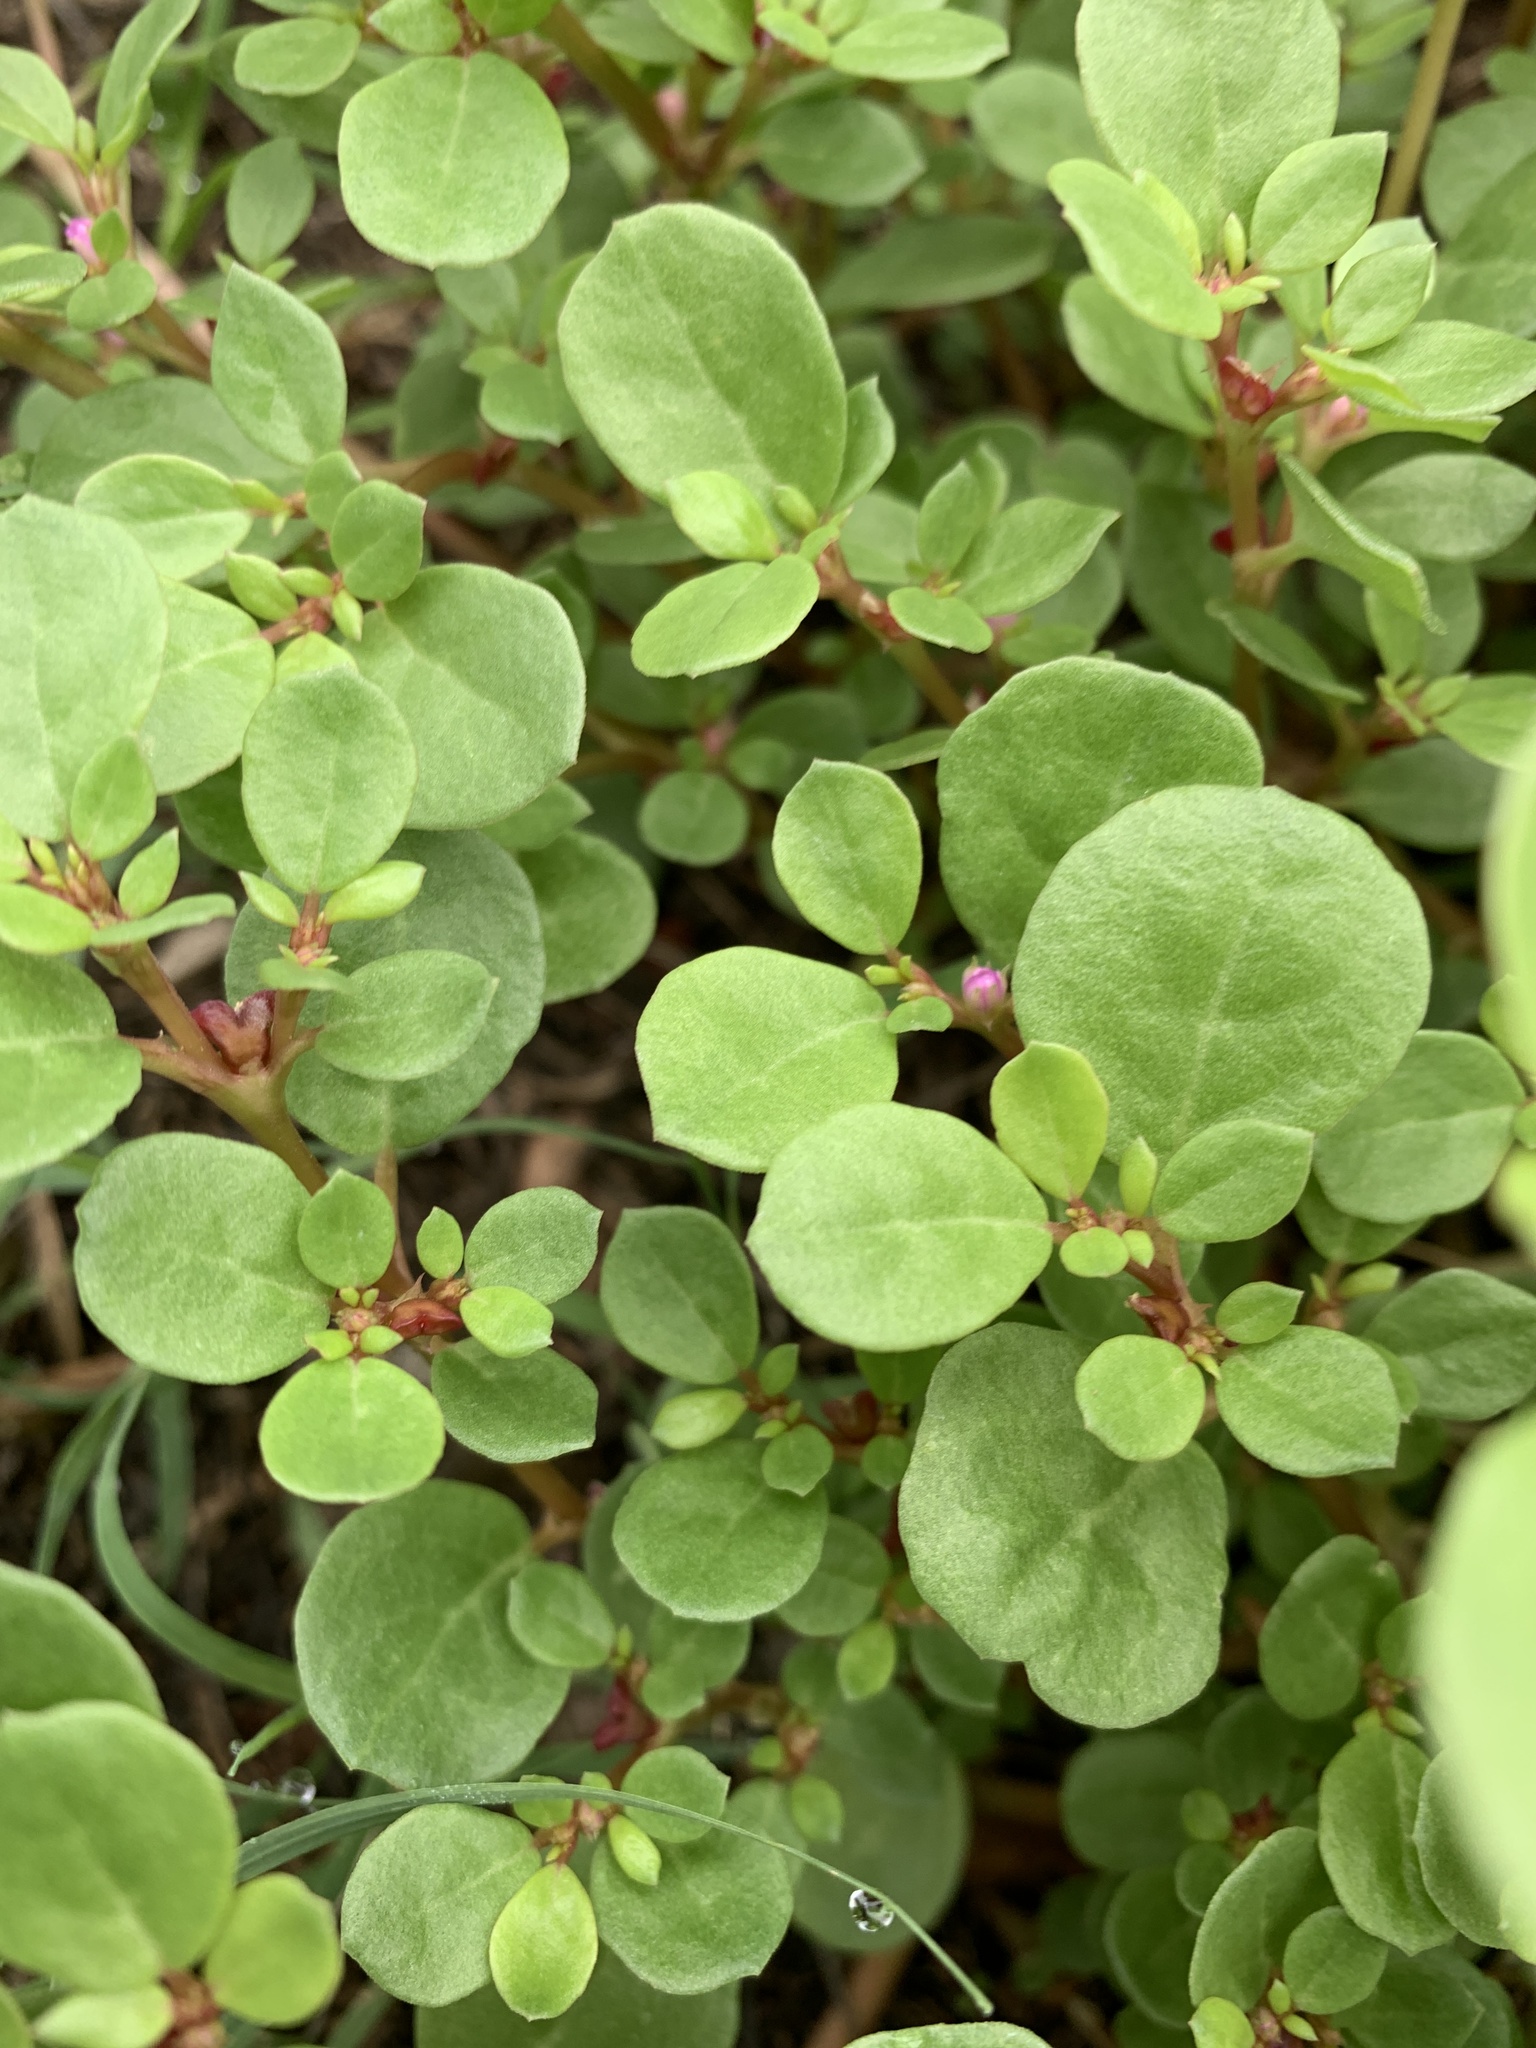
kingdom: Plantae
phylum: Tracheophyta
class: Magnoliopsida
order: Caryophyllales
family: Aizoaceae
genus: Trianthema
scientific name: Trianthema portulacastrum
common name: Desert horsepurslane
